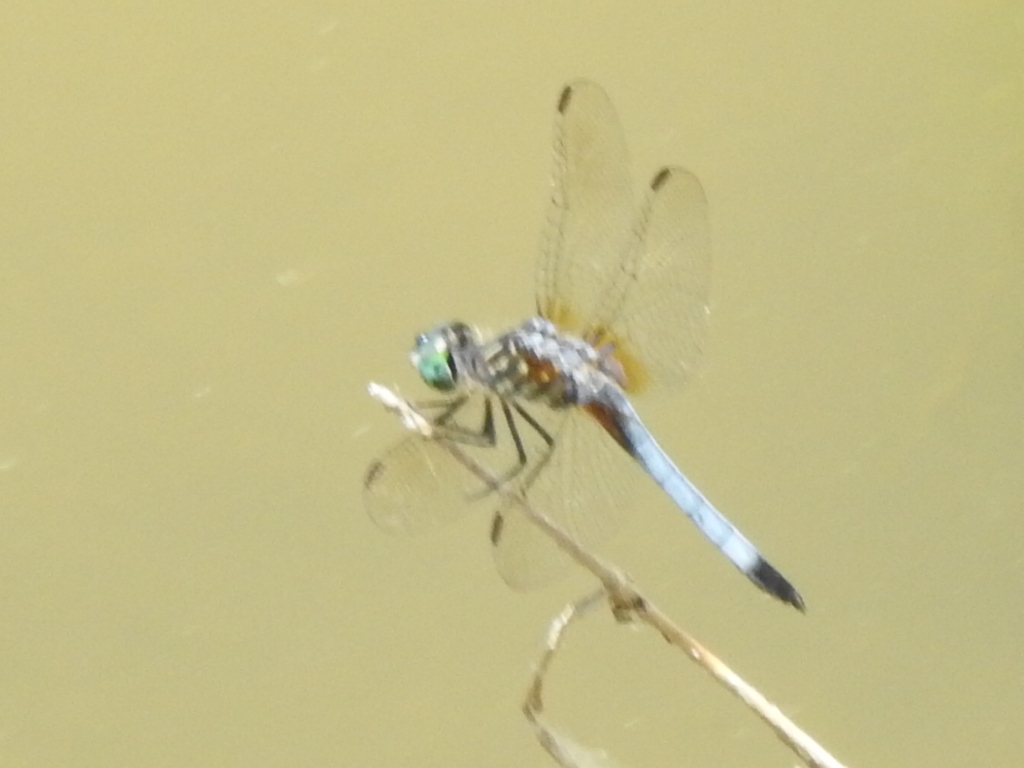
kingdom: Animalia
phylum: Arthropoda
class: Insecta
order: Odonata
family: Libellulidae
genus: Pachydiplax
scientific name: Pachydiplax longipennis
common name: Blue dasher
